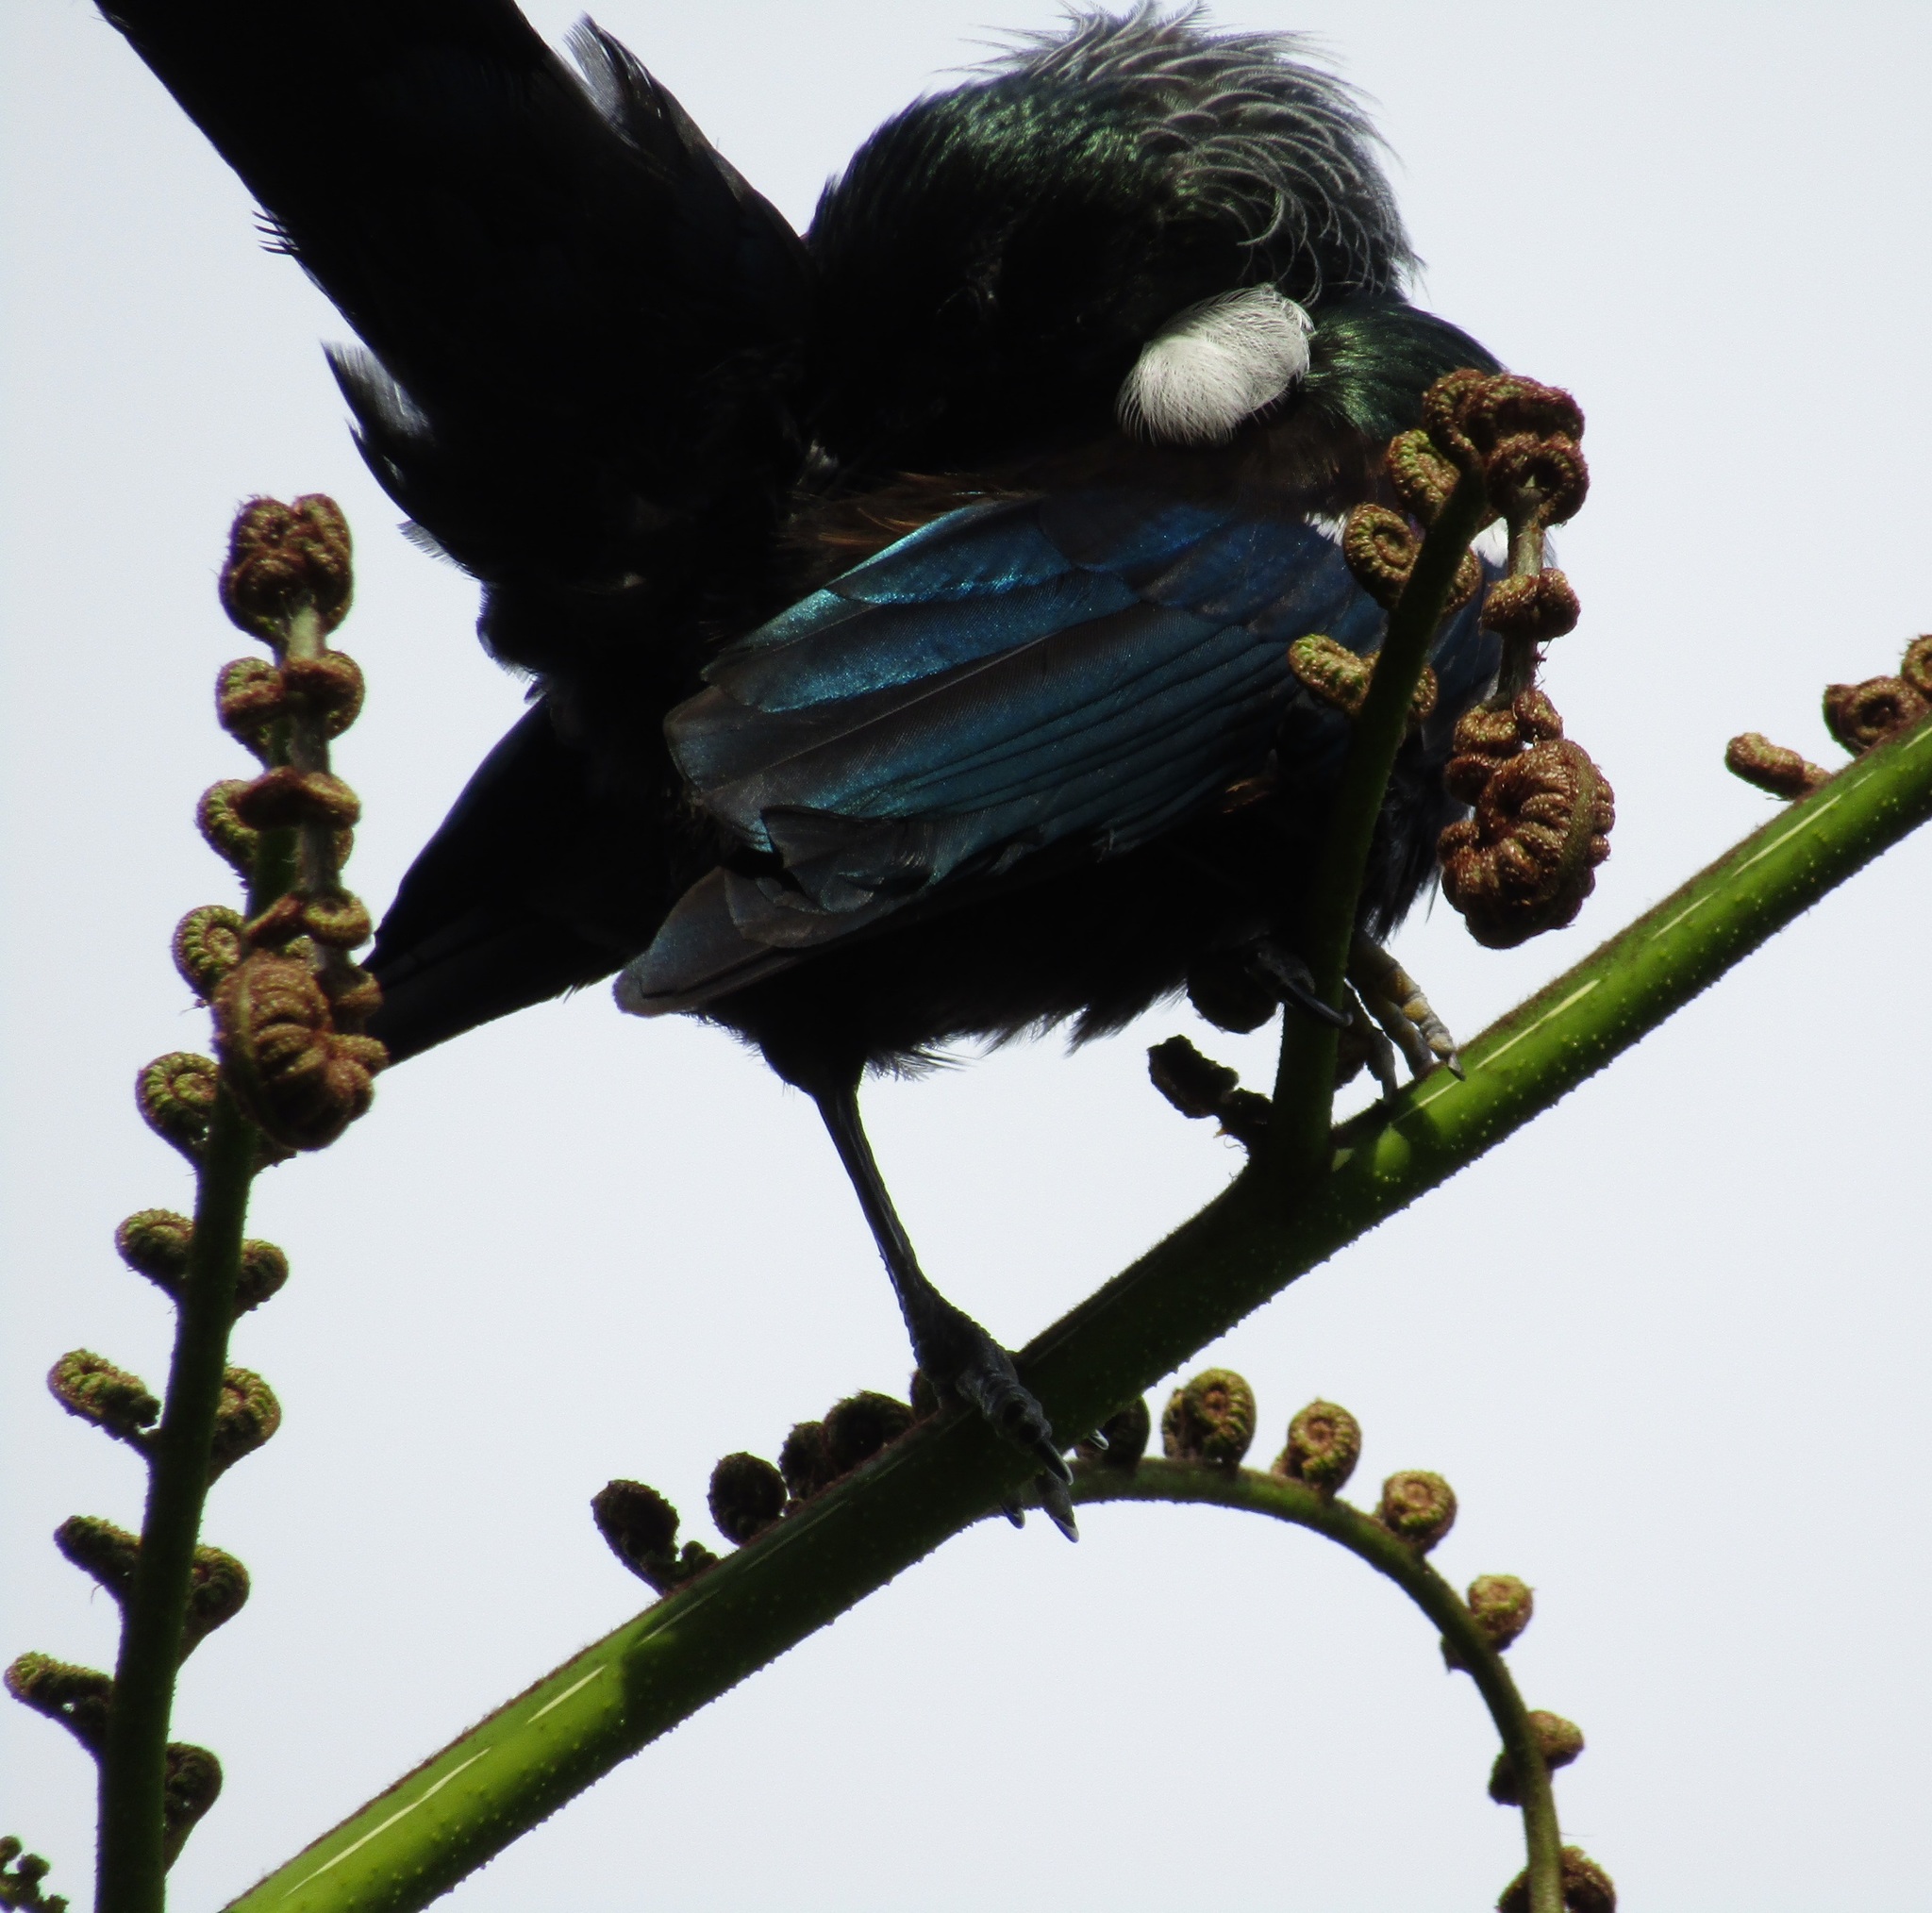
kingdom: Animalia
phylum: Chordata
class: Aves
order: Passeriformes
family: Meliphagidae
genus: Prosthemadera
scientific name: Prosthemadera novaeseelandiae
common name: Tui
